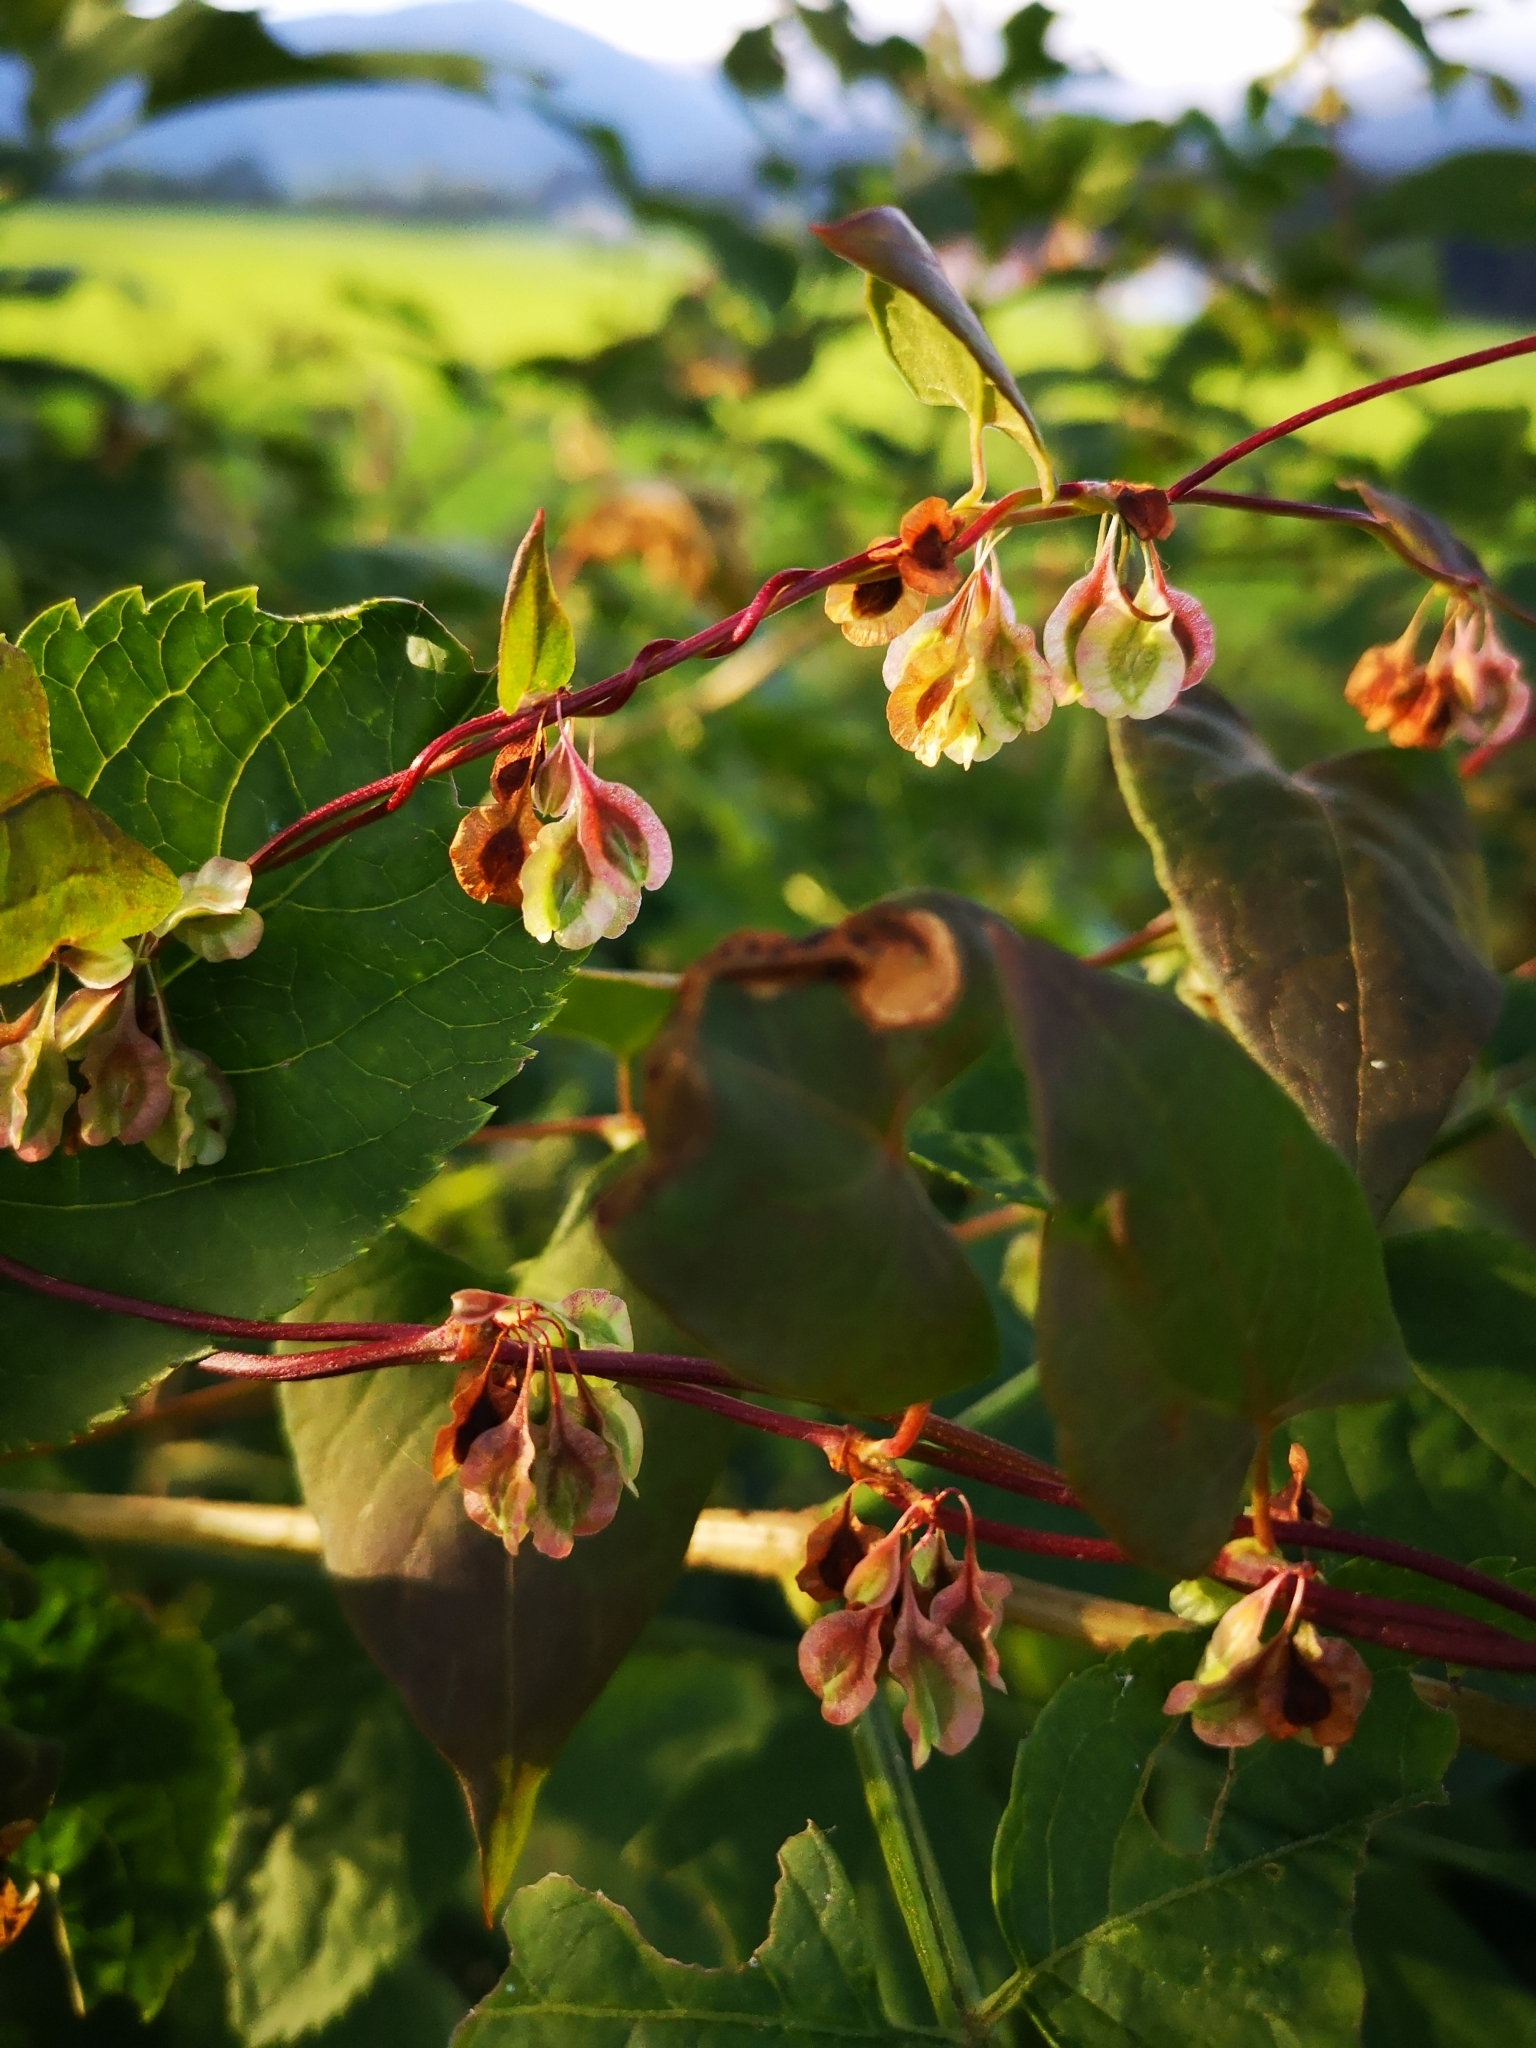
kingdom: Plantae
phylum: Tracheophyta
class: Magnoliopsida
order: Caryophyllales
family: Polygonaceae
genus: Fallopia
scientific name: Fallopia dumetorum
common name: Copse-bindweed
